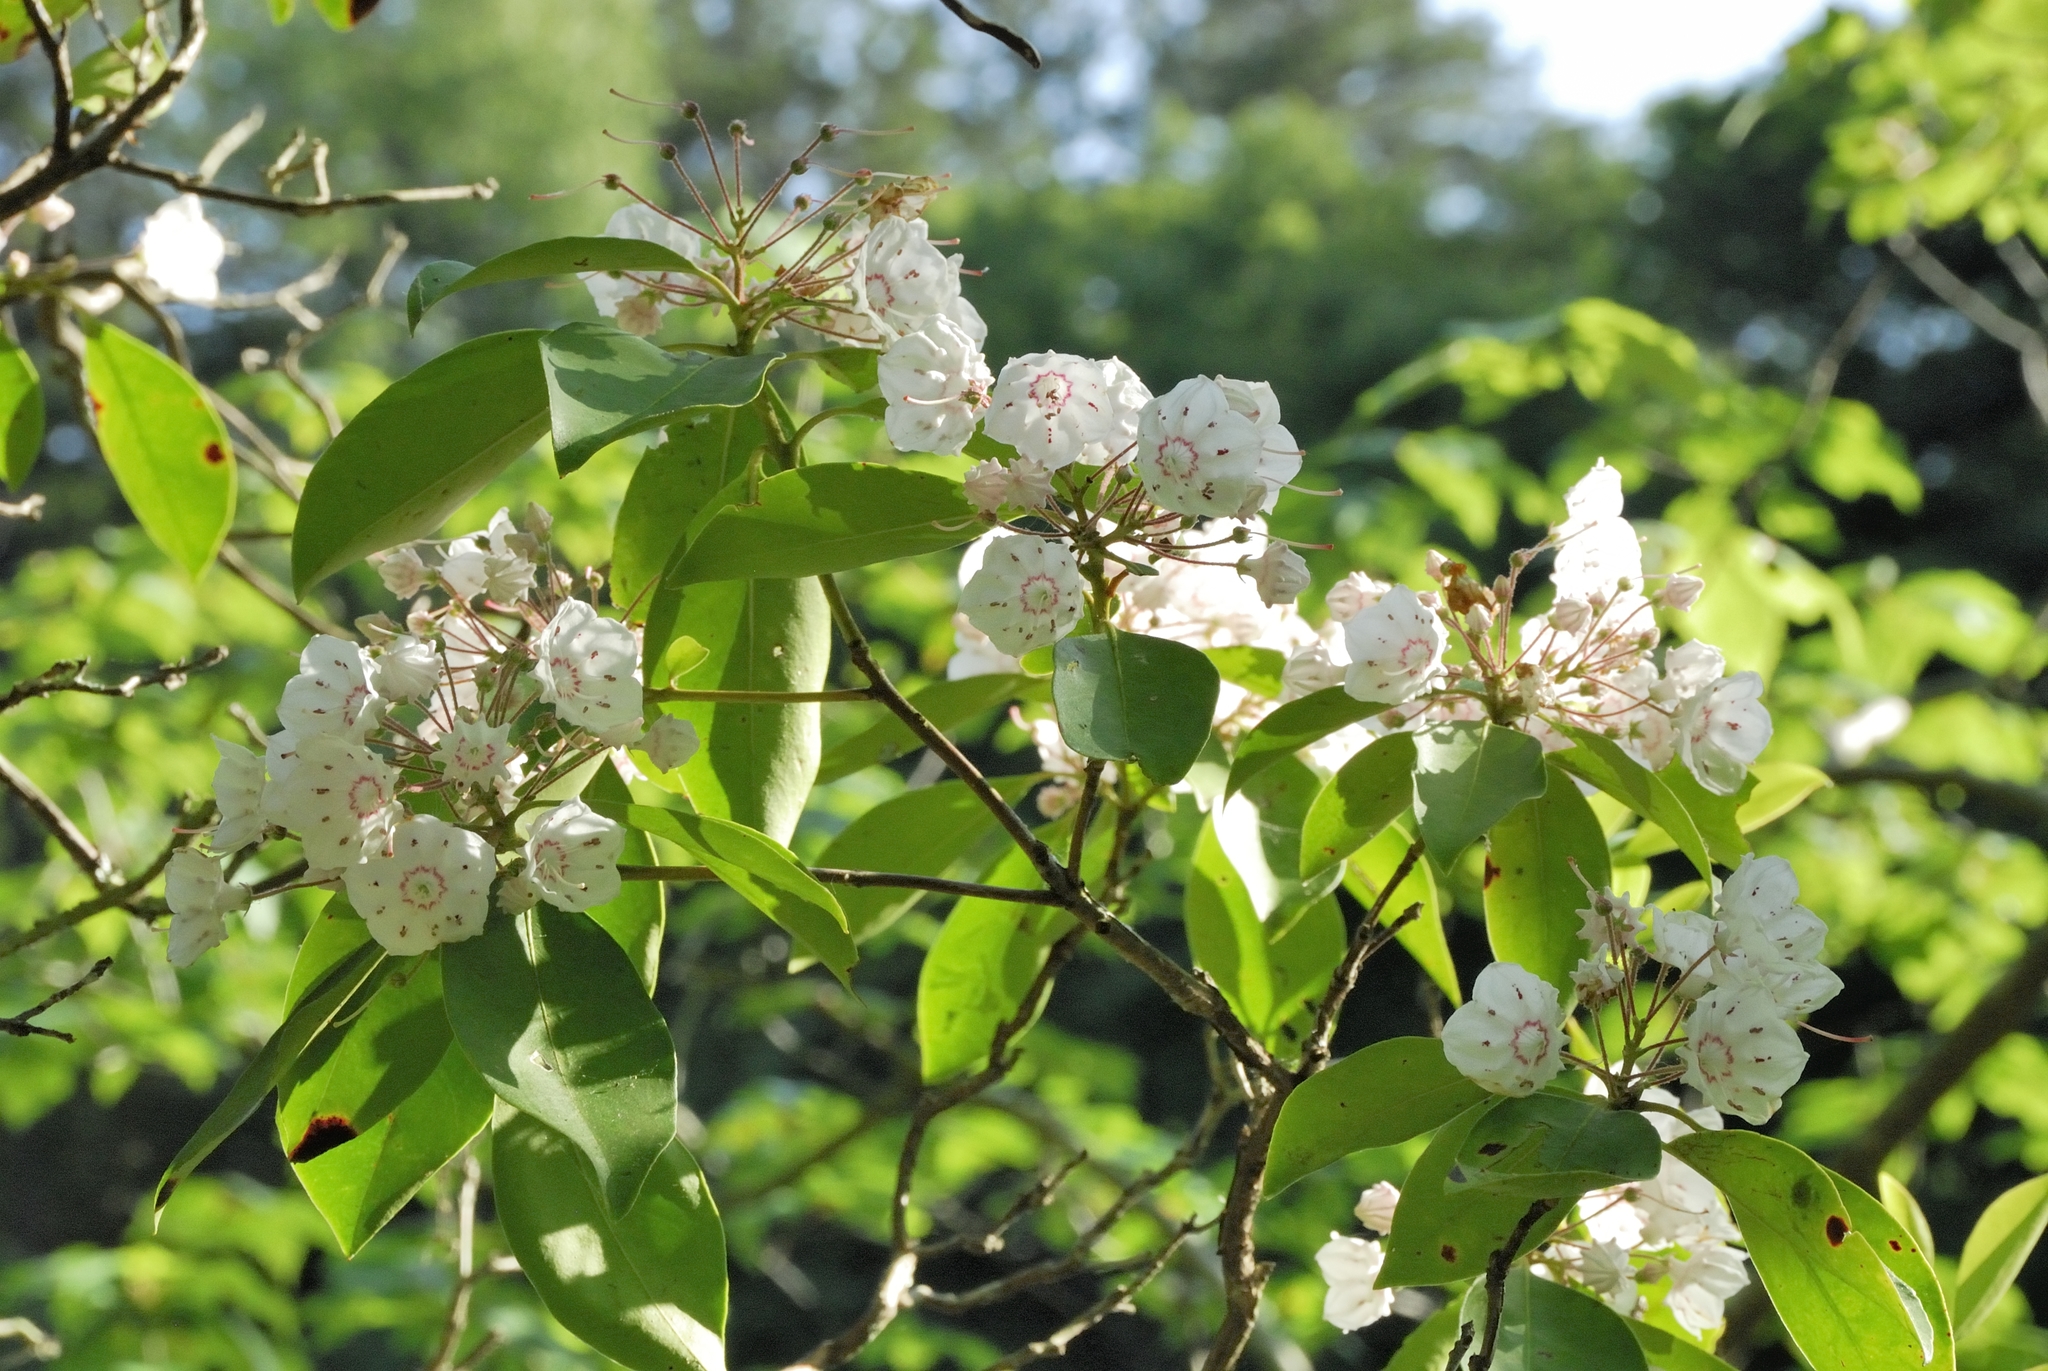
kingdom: Plantae
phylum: Tracheophyta
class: Magnoliopsida
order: Ericales
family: Ericaceae
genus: Kalmia
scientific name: Kalmia latifolia
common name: Mountain-laurel
